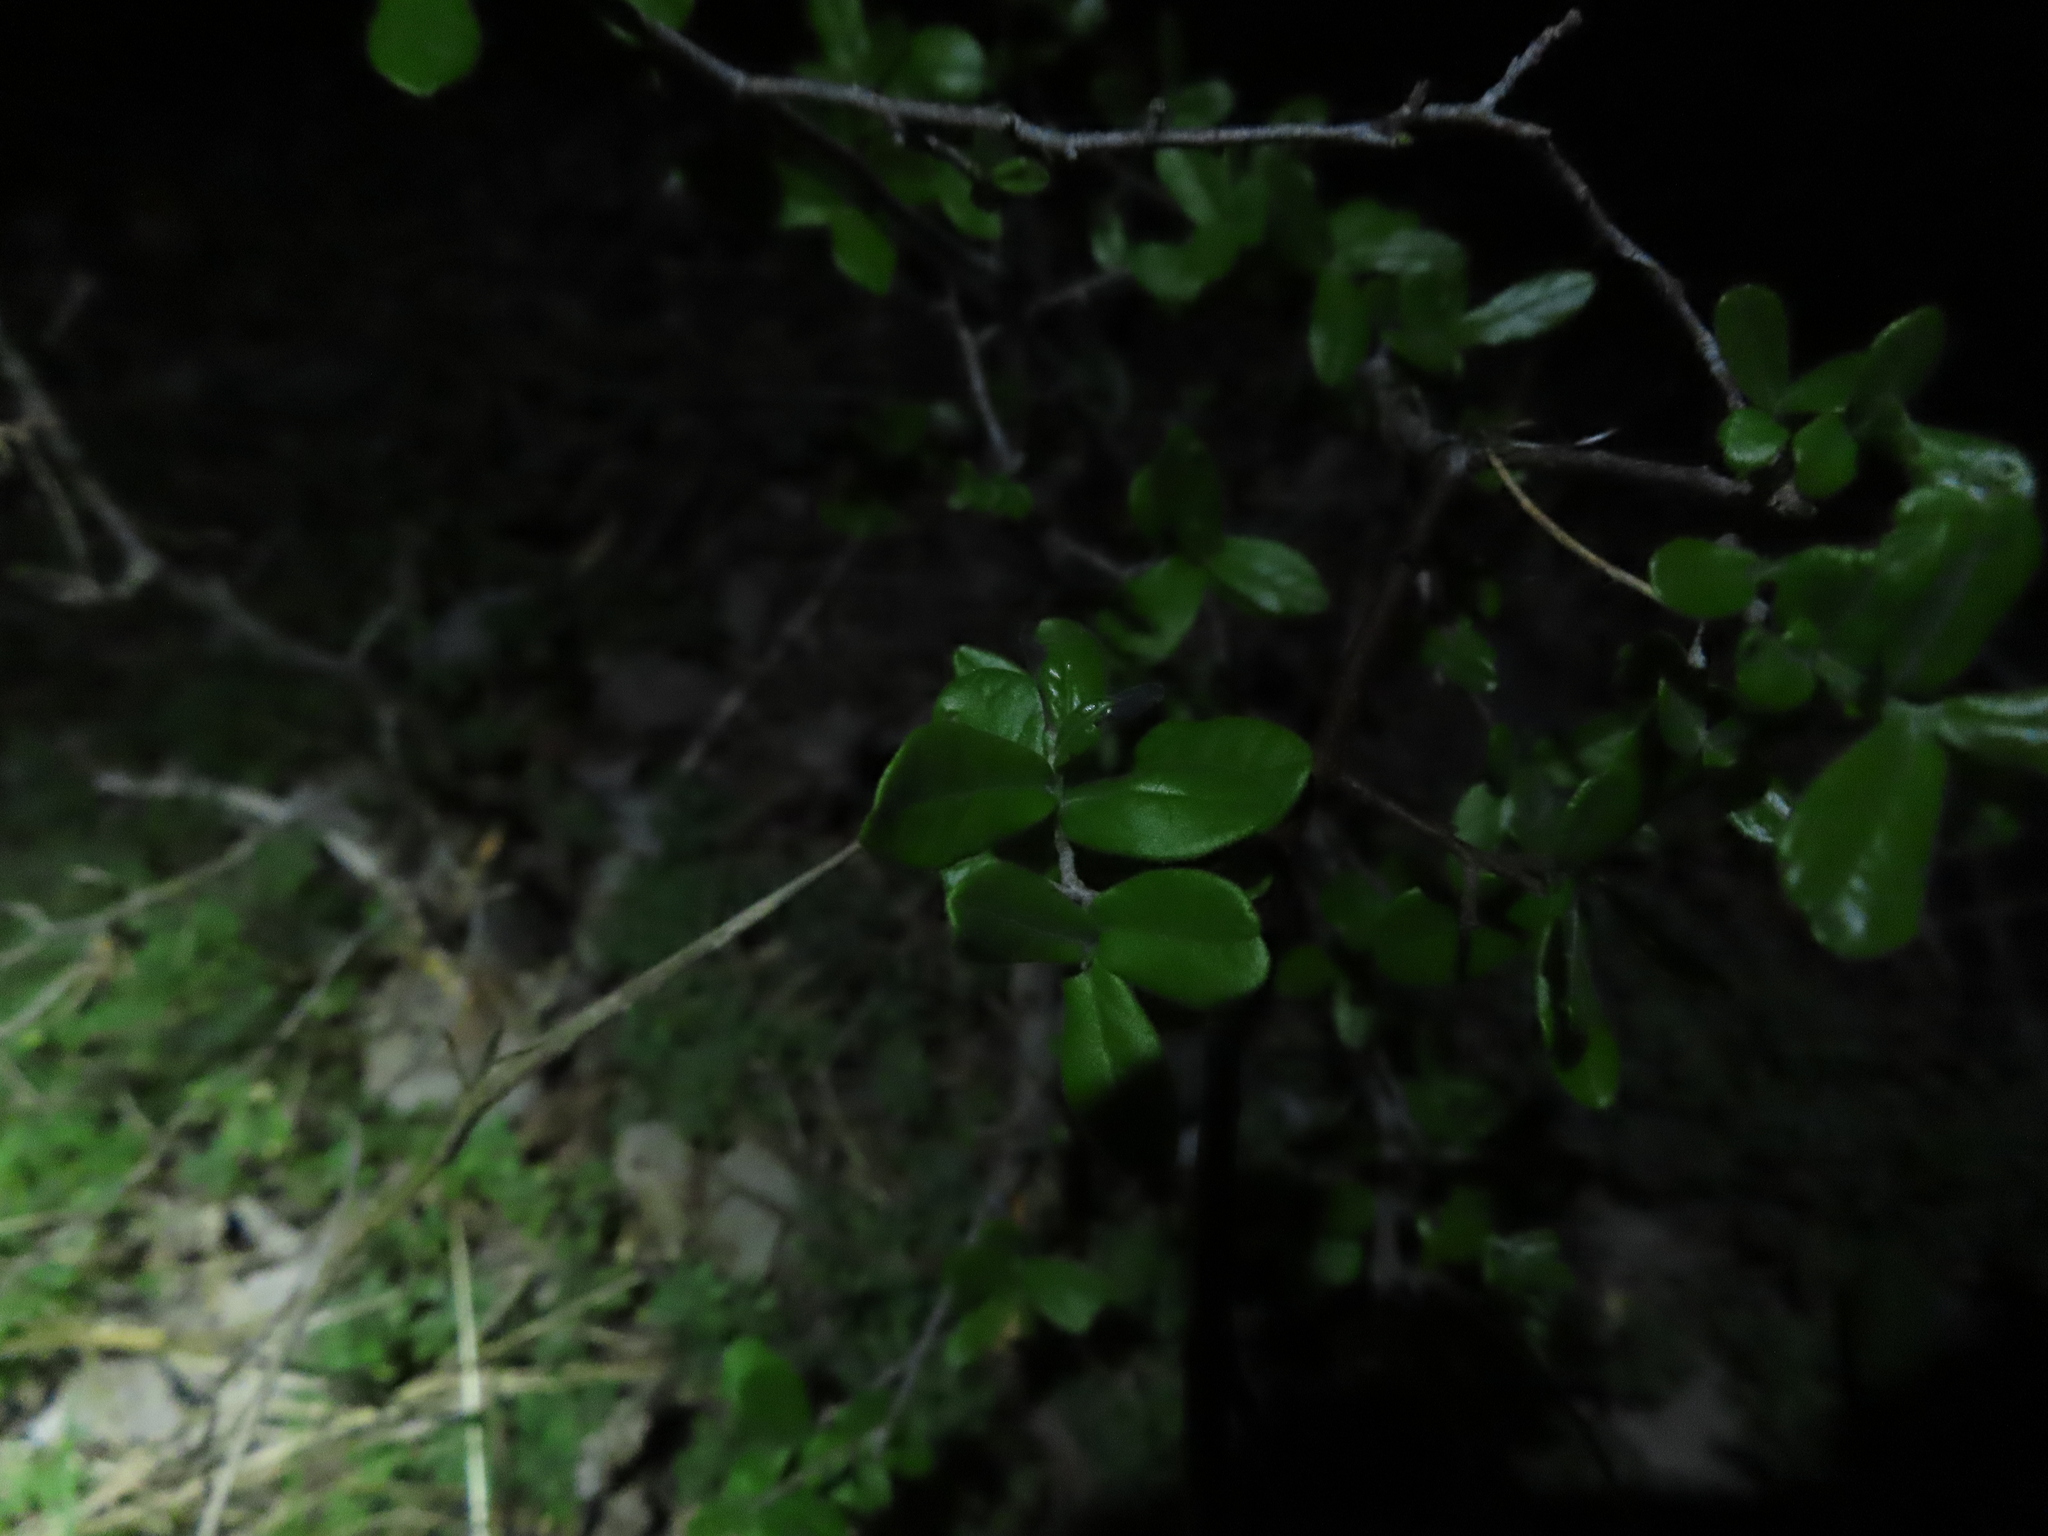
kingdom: Plantae
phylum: Tracheophyta
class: Magnoliopsida
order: Ericales
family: Ebenaceae
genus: Diospyros
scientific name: Diospyros texana
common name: Texas persimmon
